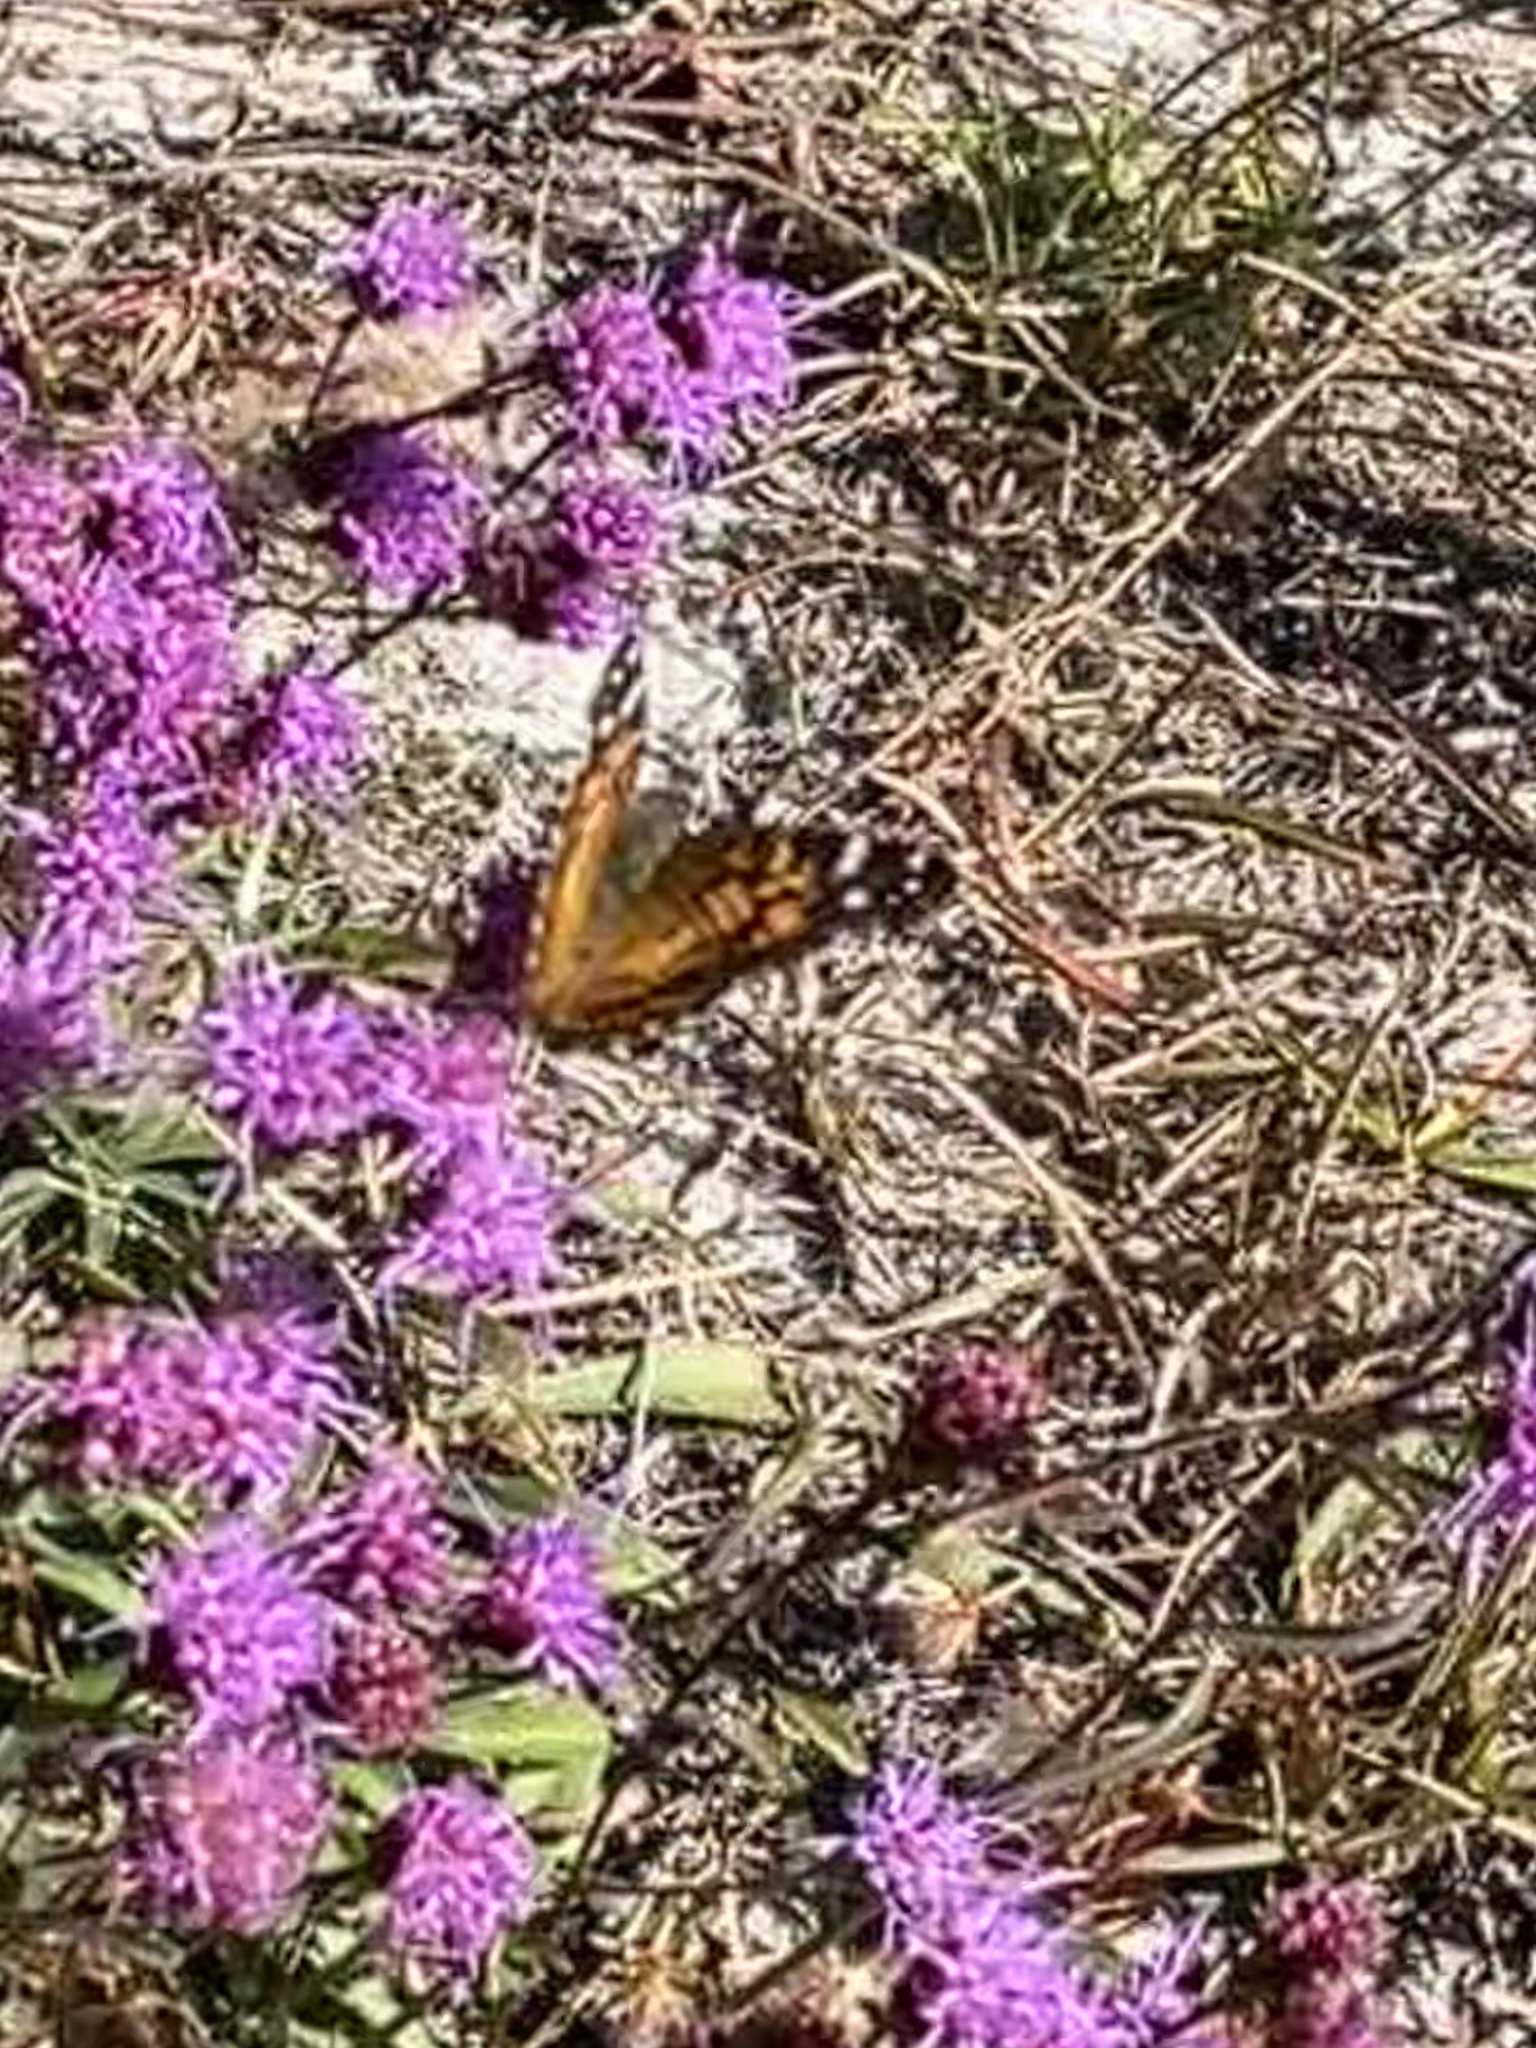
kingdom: Animalia
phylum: Arthropoda
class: Insecta
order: Lepidoptera
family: Nymphalidae
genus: Vanessa
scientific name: Vanessa virginiensis
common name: American lady
